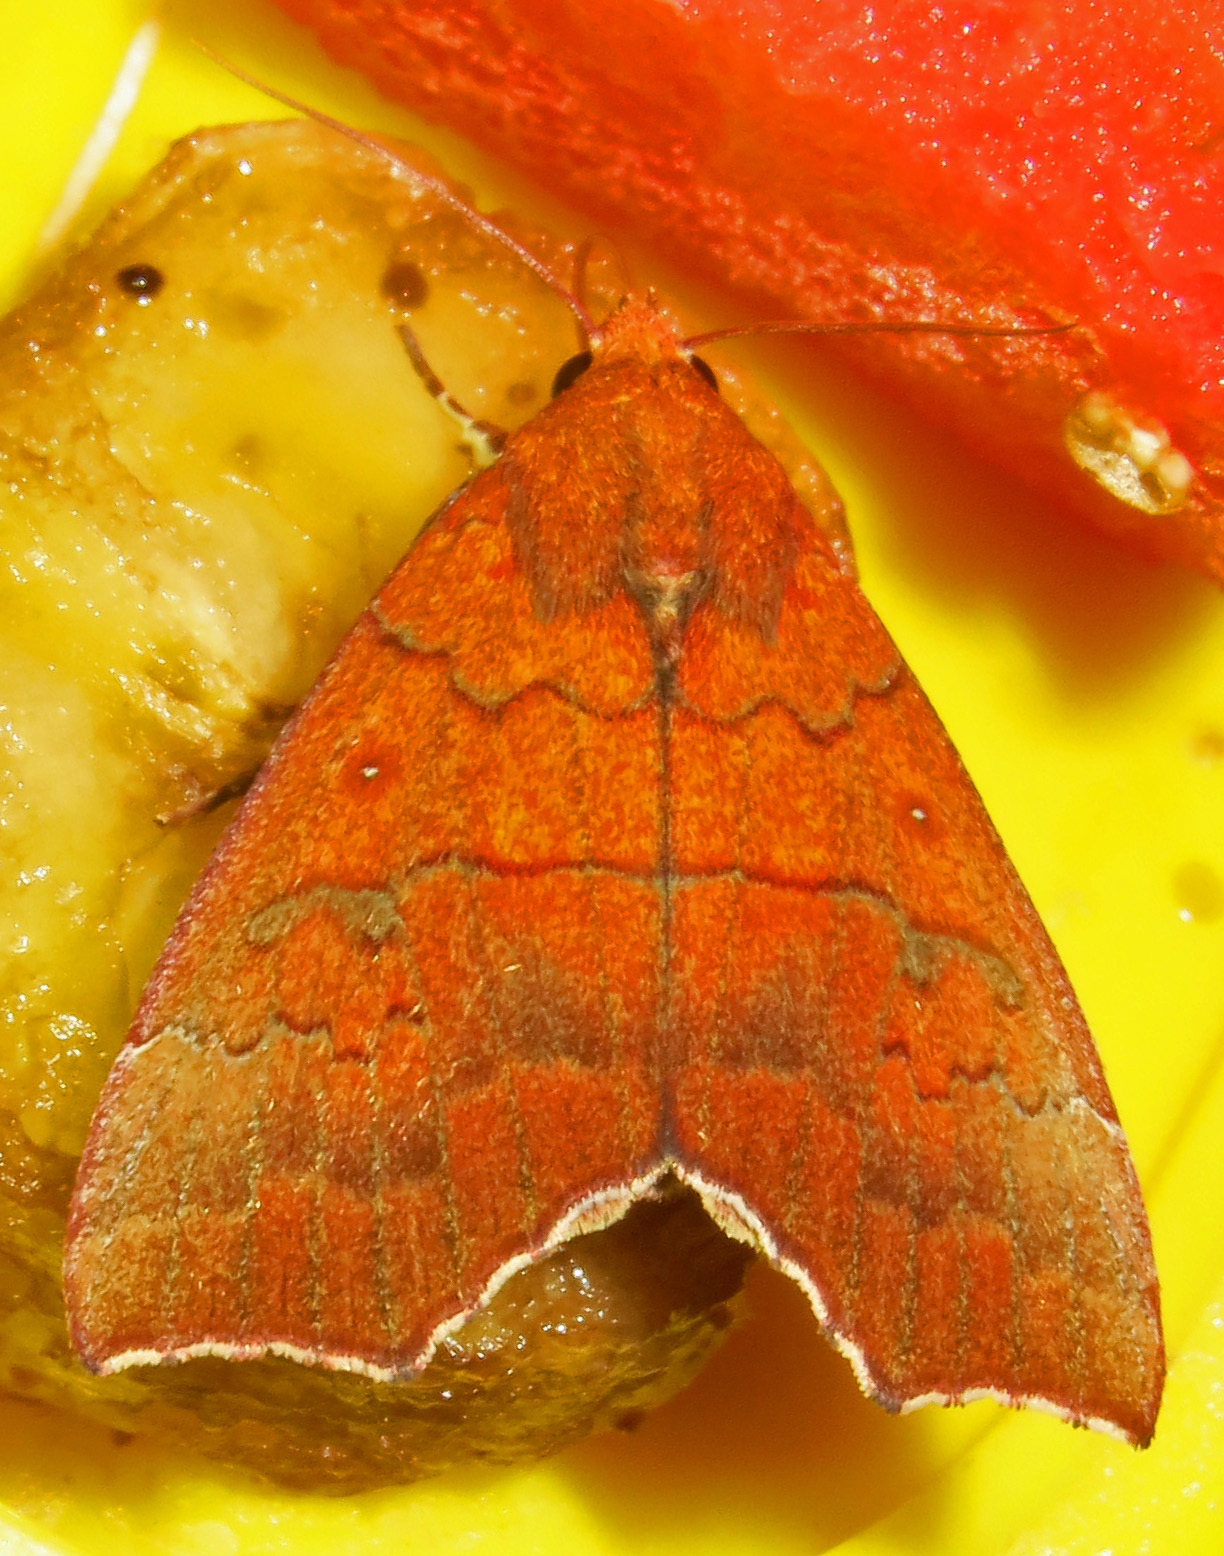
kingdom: Animalia
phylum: Arthropoda
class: Insecta
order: Lepidoptera
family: Erebidae
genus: Rusicada
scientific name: Rusicada privata
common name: Hibiscus leaf caterpillar moth
